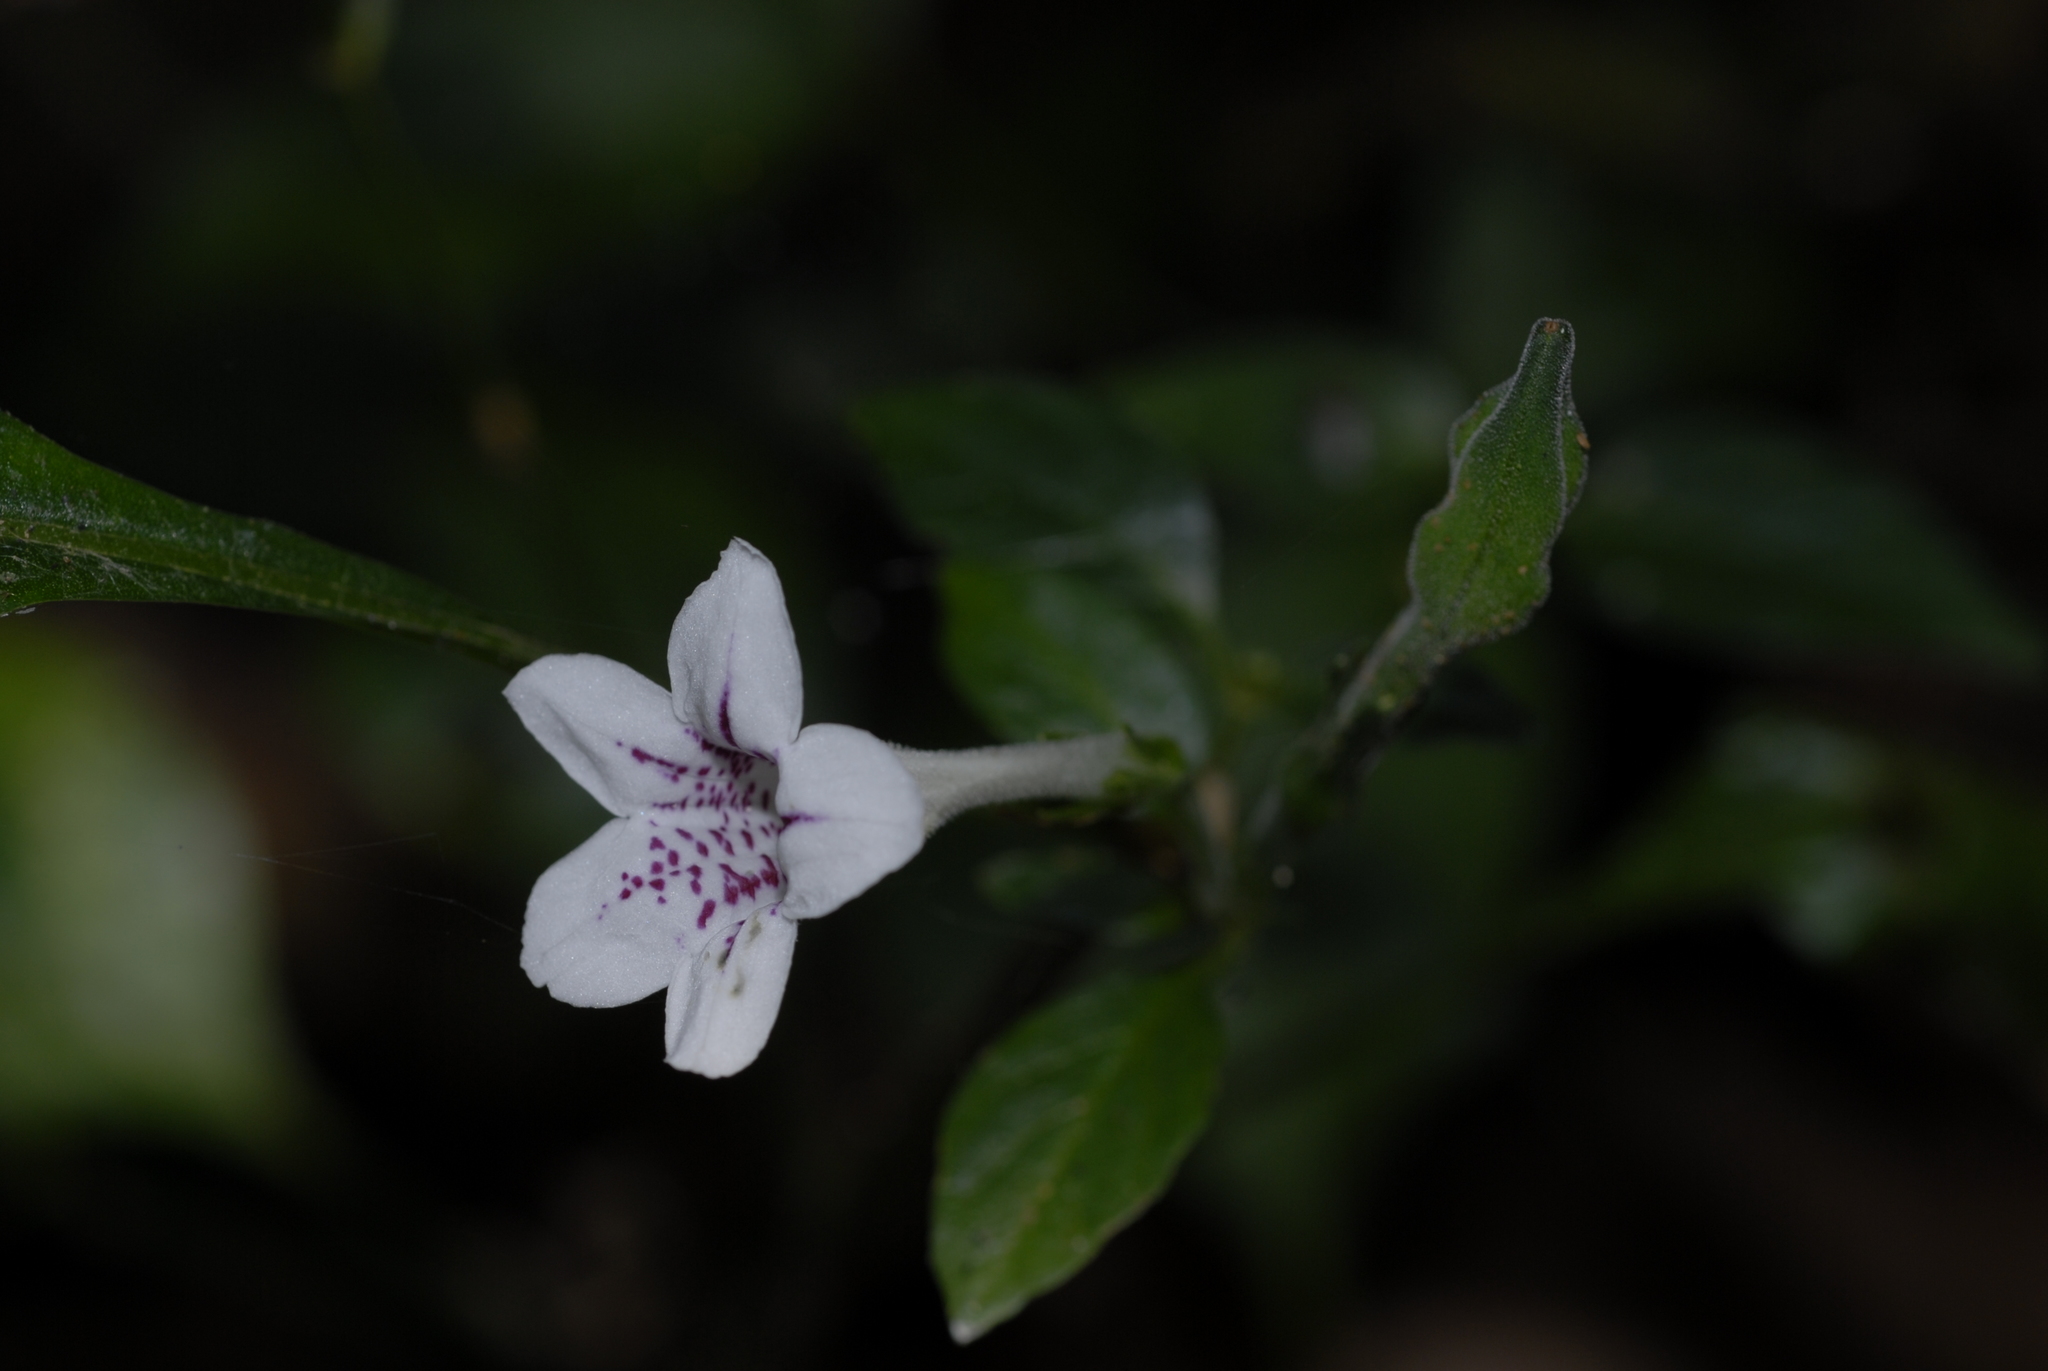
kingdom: Plantae
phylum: Tracheophyta
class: Magnoliopsida
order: Lamiales
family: Acanthaceae
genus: Asystasia
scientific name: Asystasia malawiana
